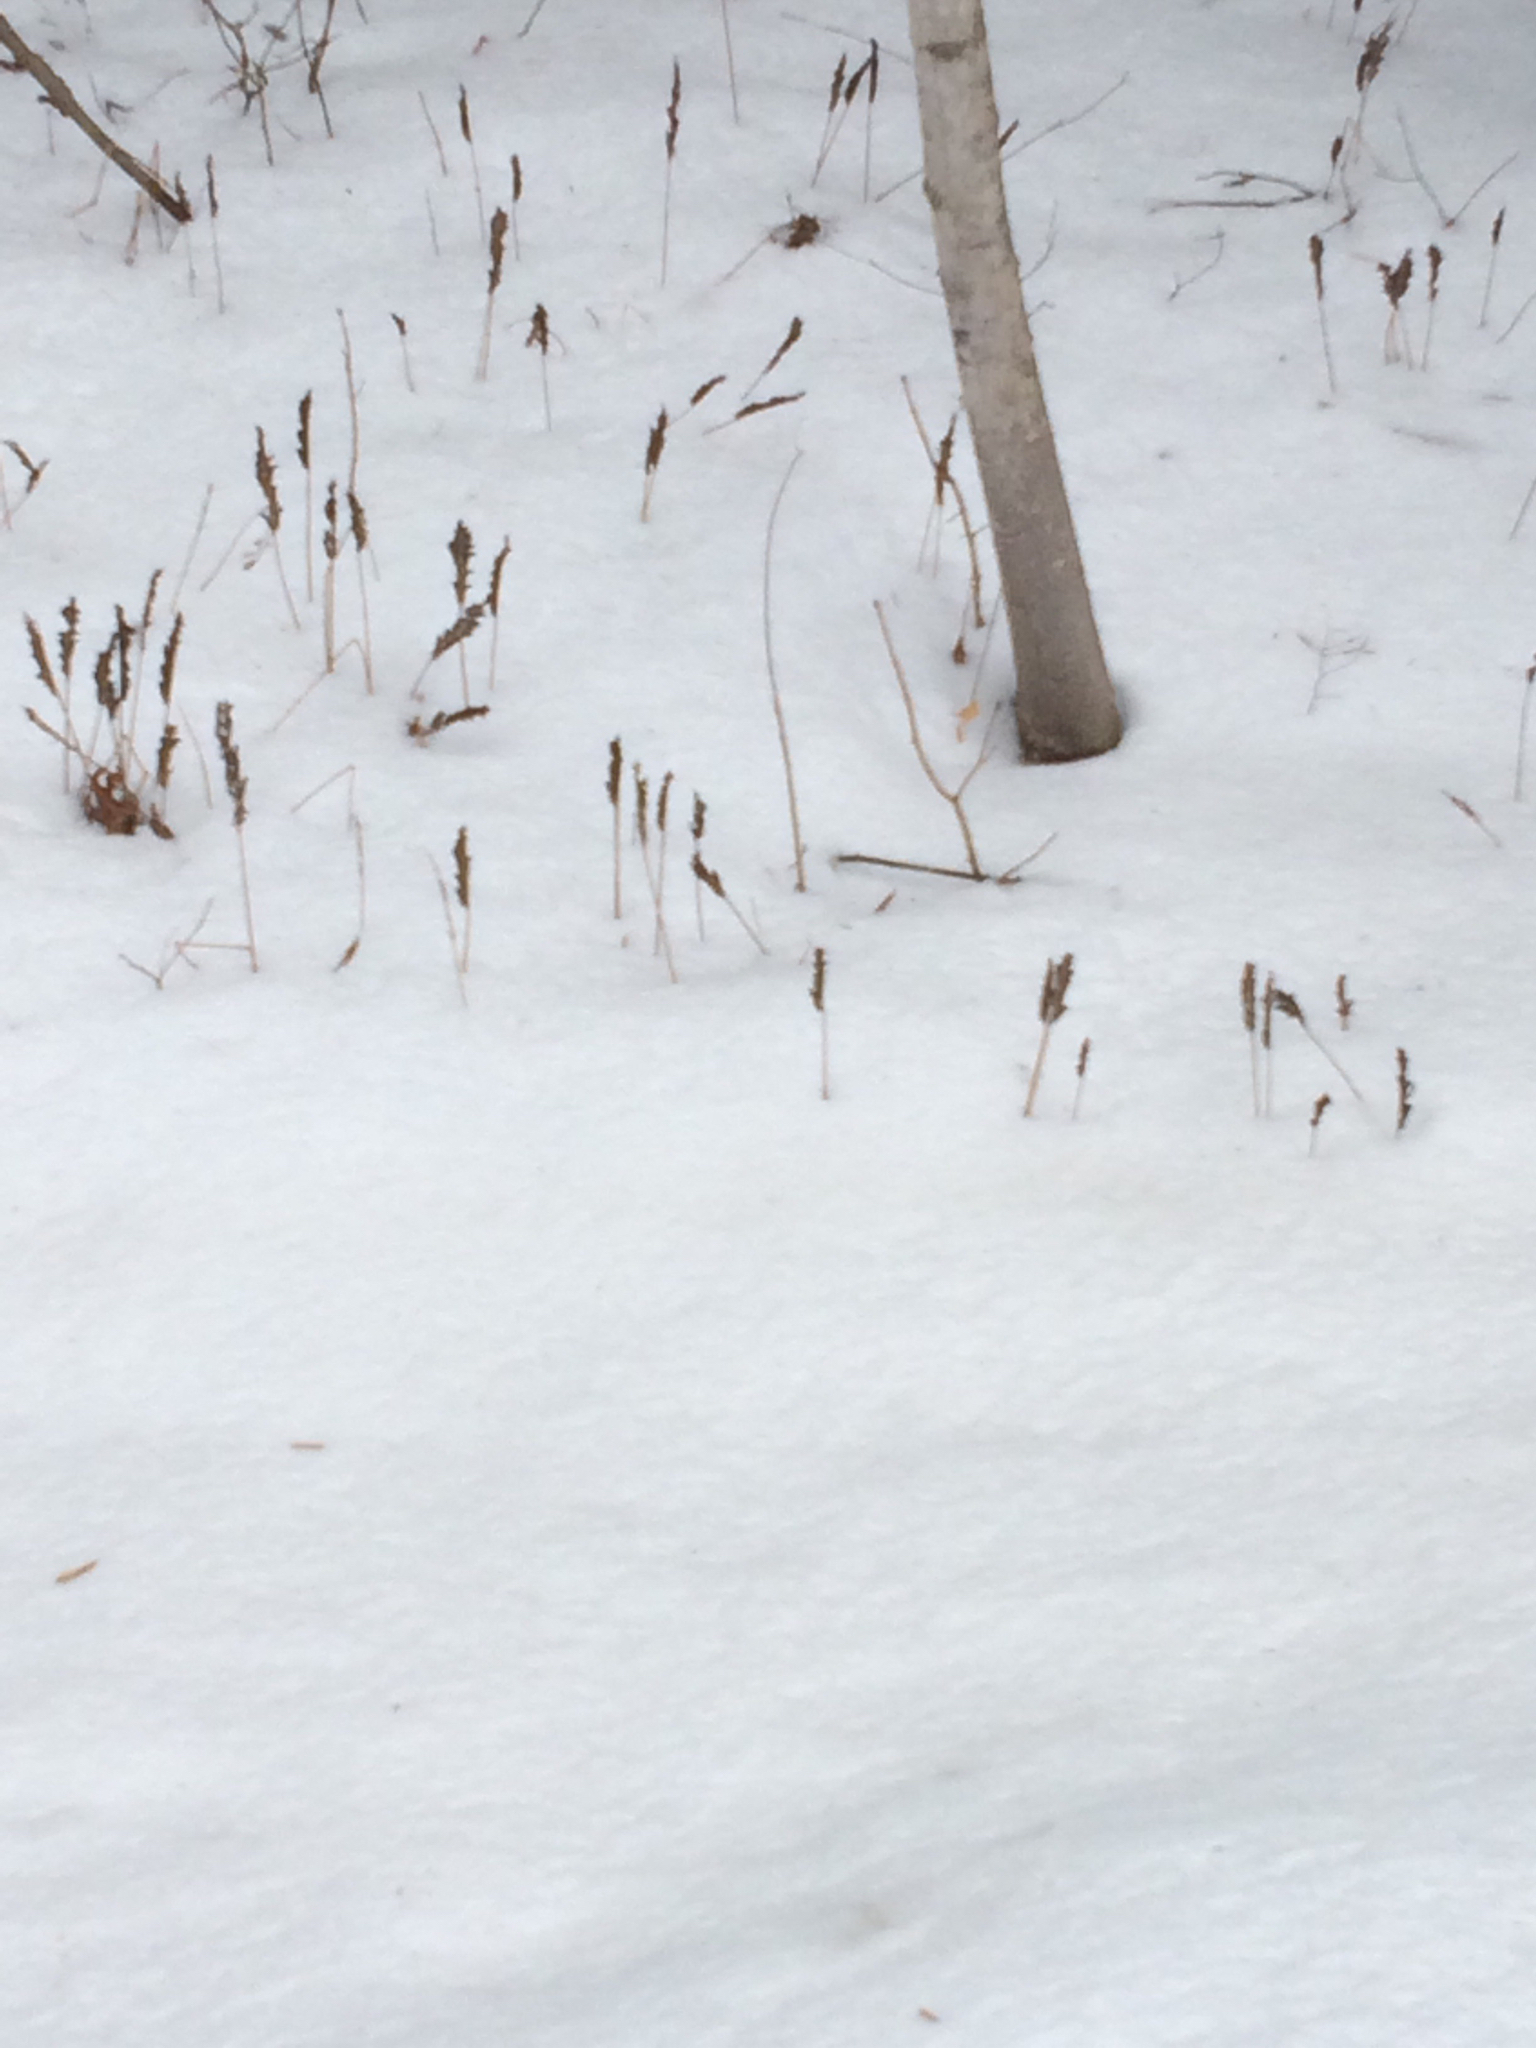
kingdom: Plantae
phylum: Tracheophyta
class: Polypodiopsida
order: Polypodiales
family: Onocleaceae
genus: Onoclea
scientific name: Onoclea sensibilis
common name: Sensitive fern
